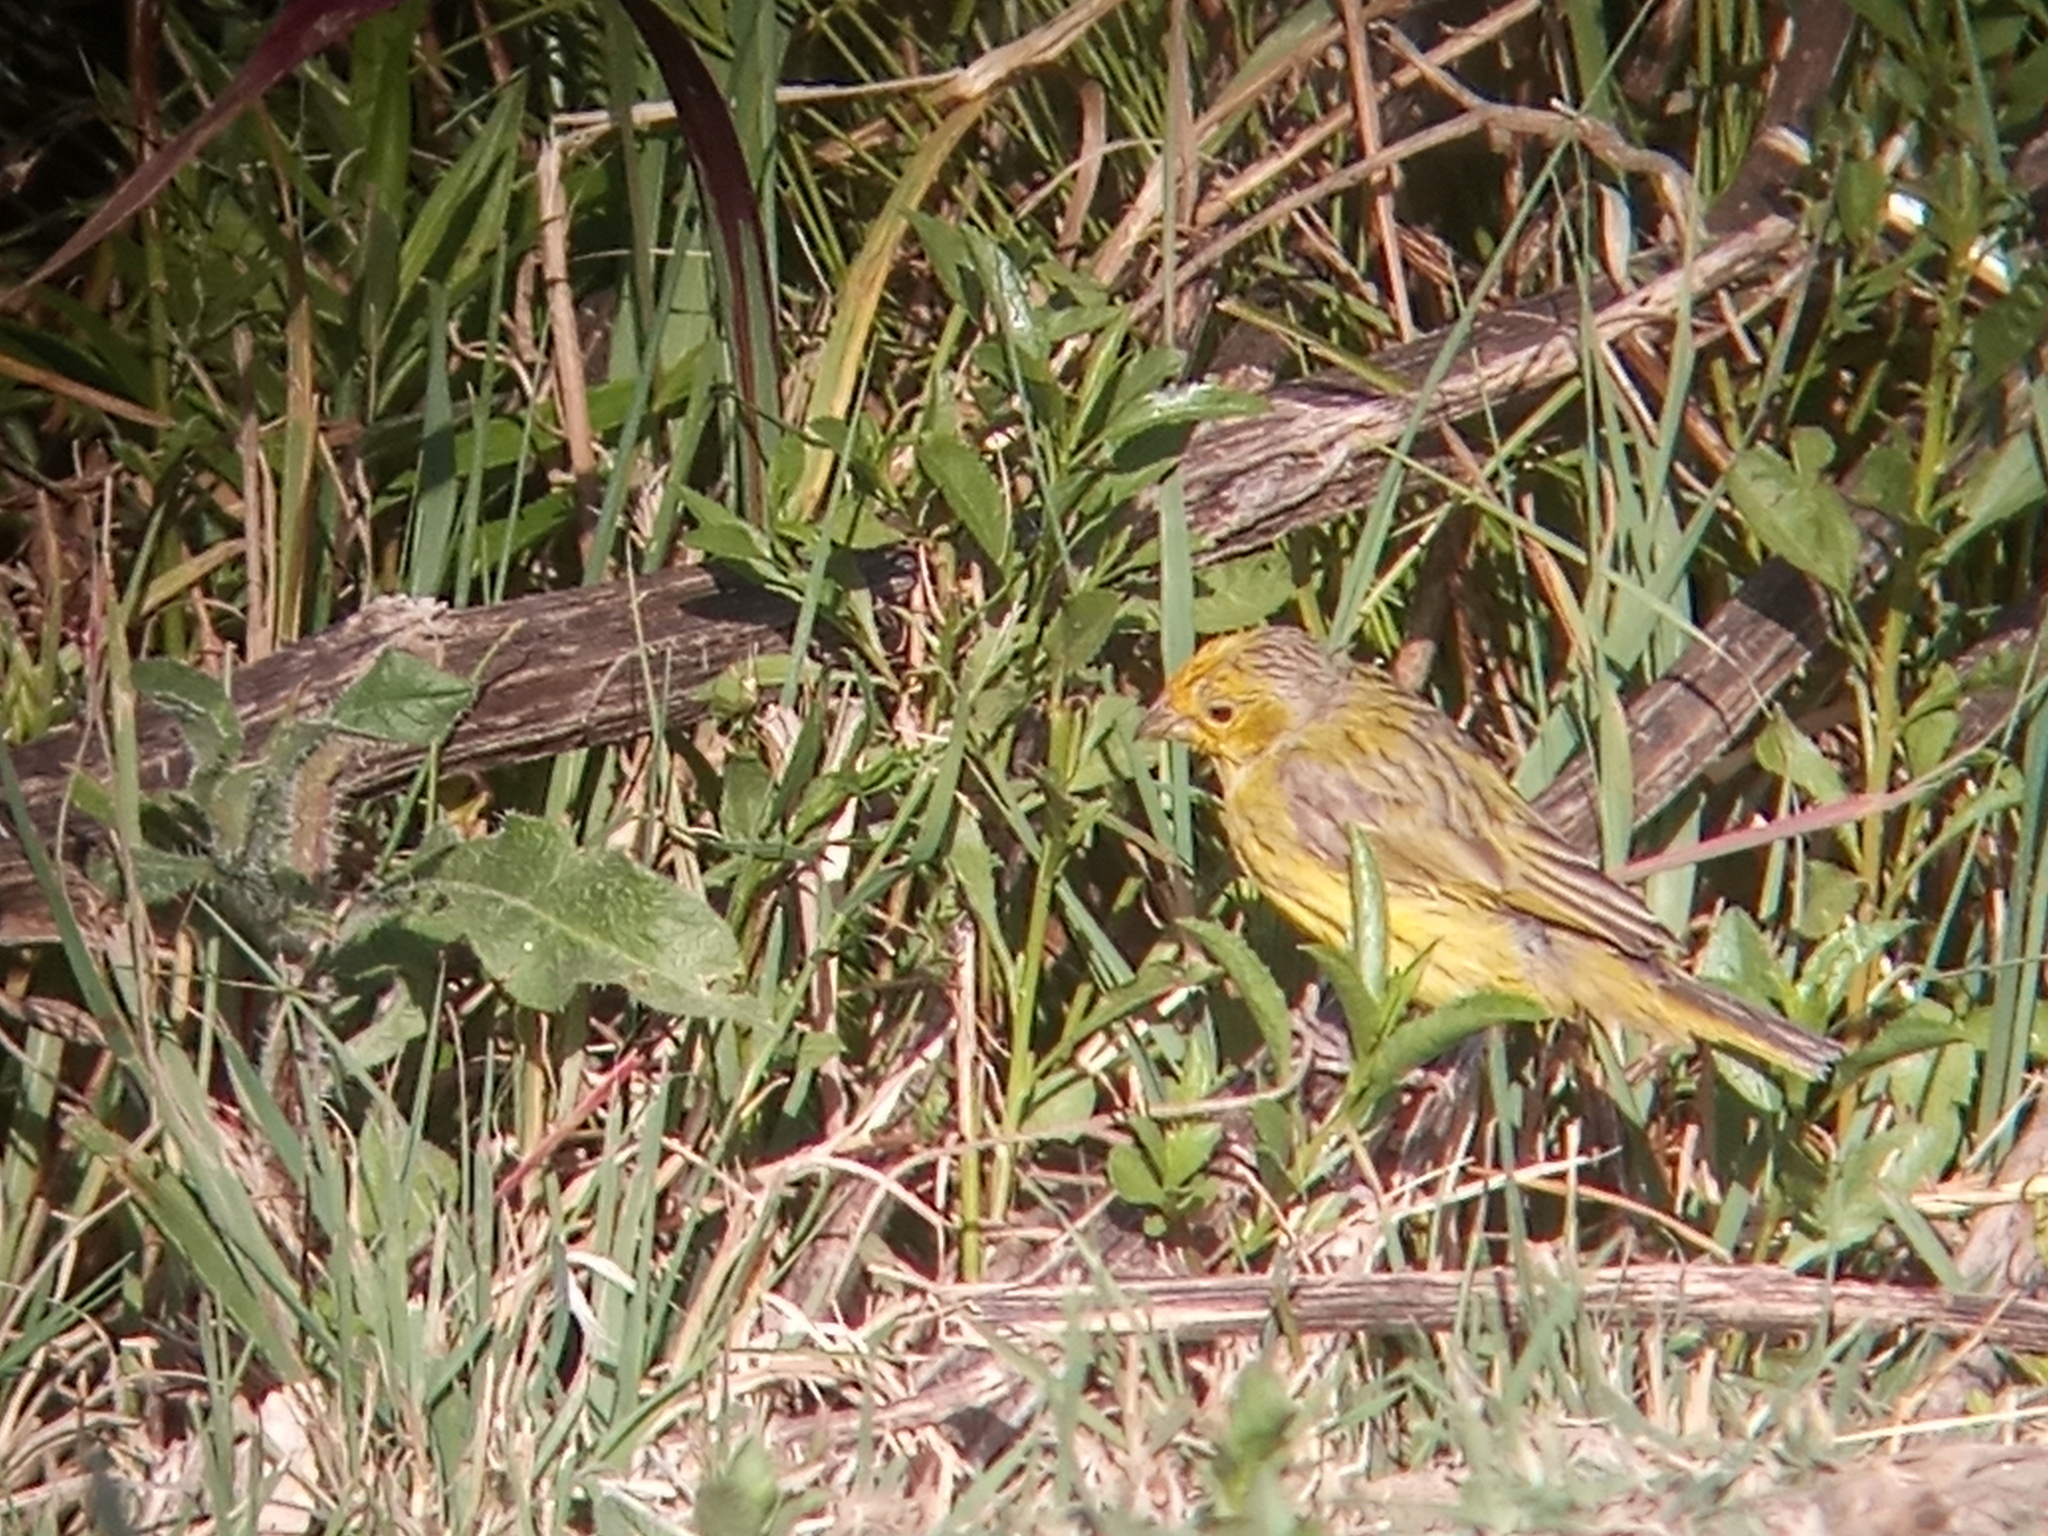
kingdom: Animalia
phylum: Chordata
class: Aves
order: Passeriformes
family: Thraupidae
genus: Sicalis
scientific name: Sicalis flaveola
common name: Saffron finch
